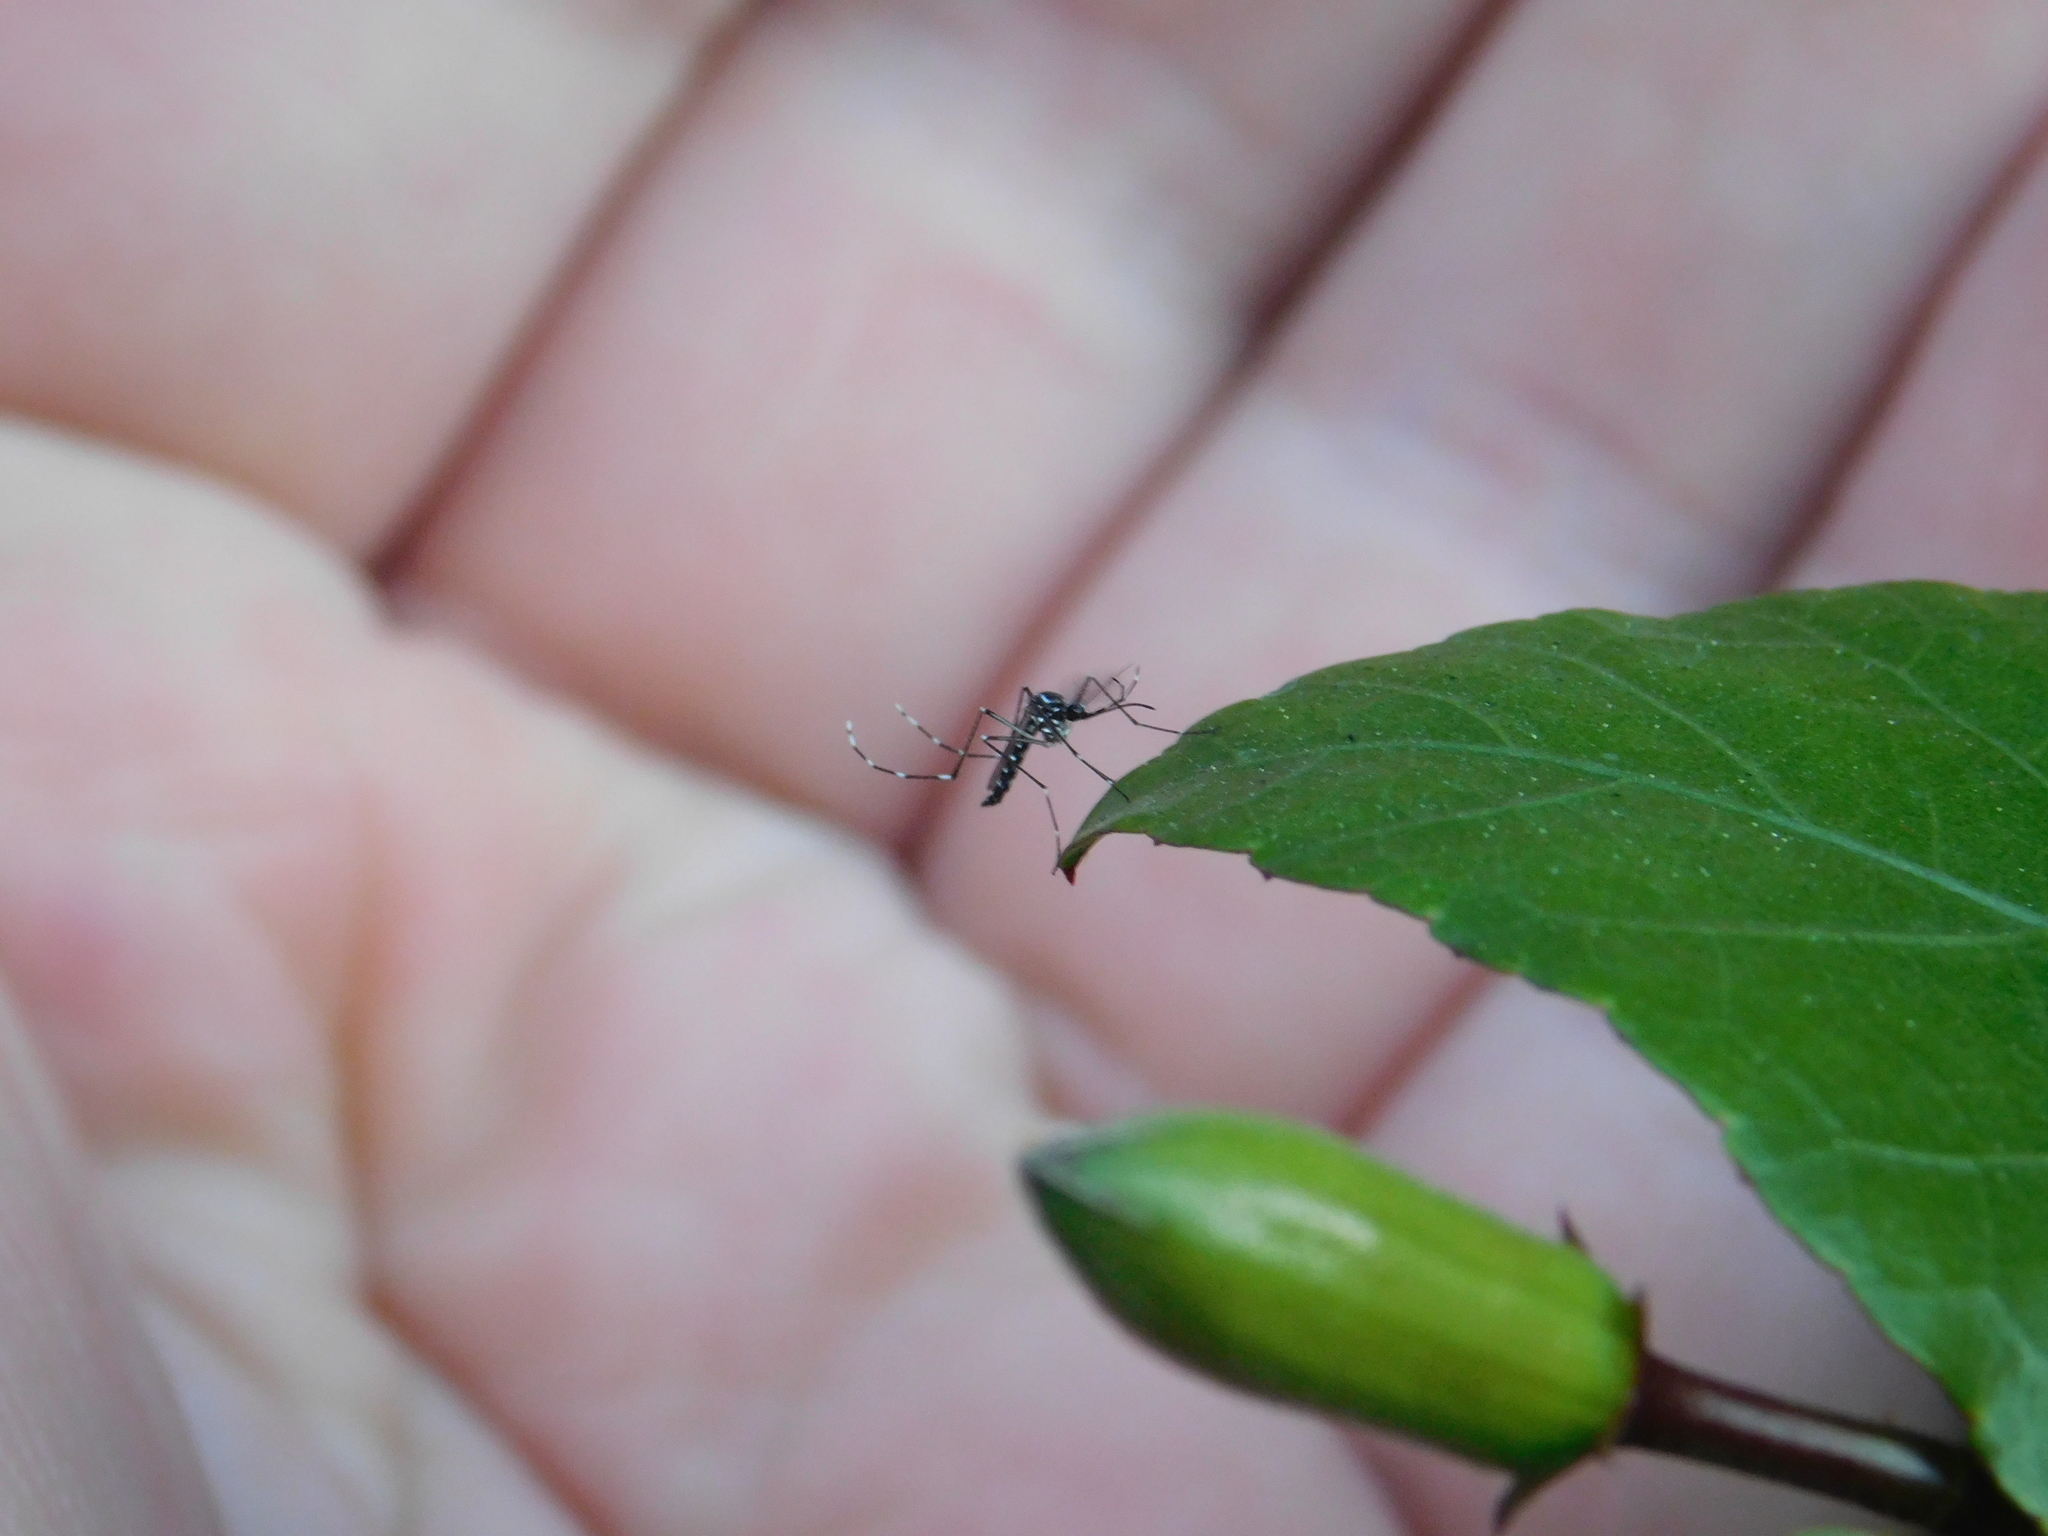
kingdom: Animalia
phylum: Arthropoda
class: Insecta
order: Diptera
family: Culicidae
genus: Aedes
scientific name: Aedes aegypti
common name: Yellow fever mosquito
